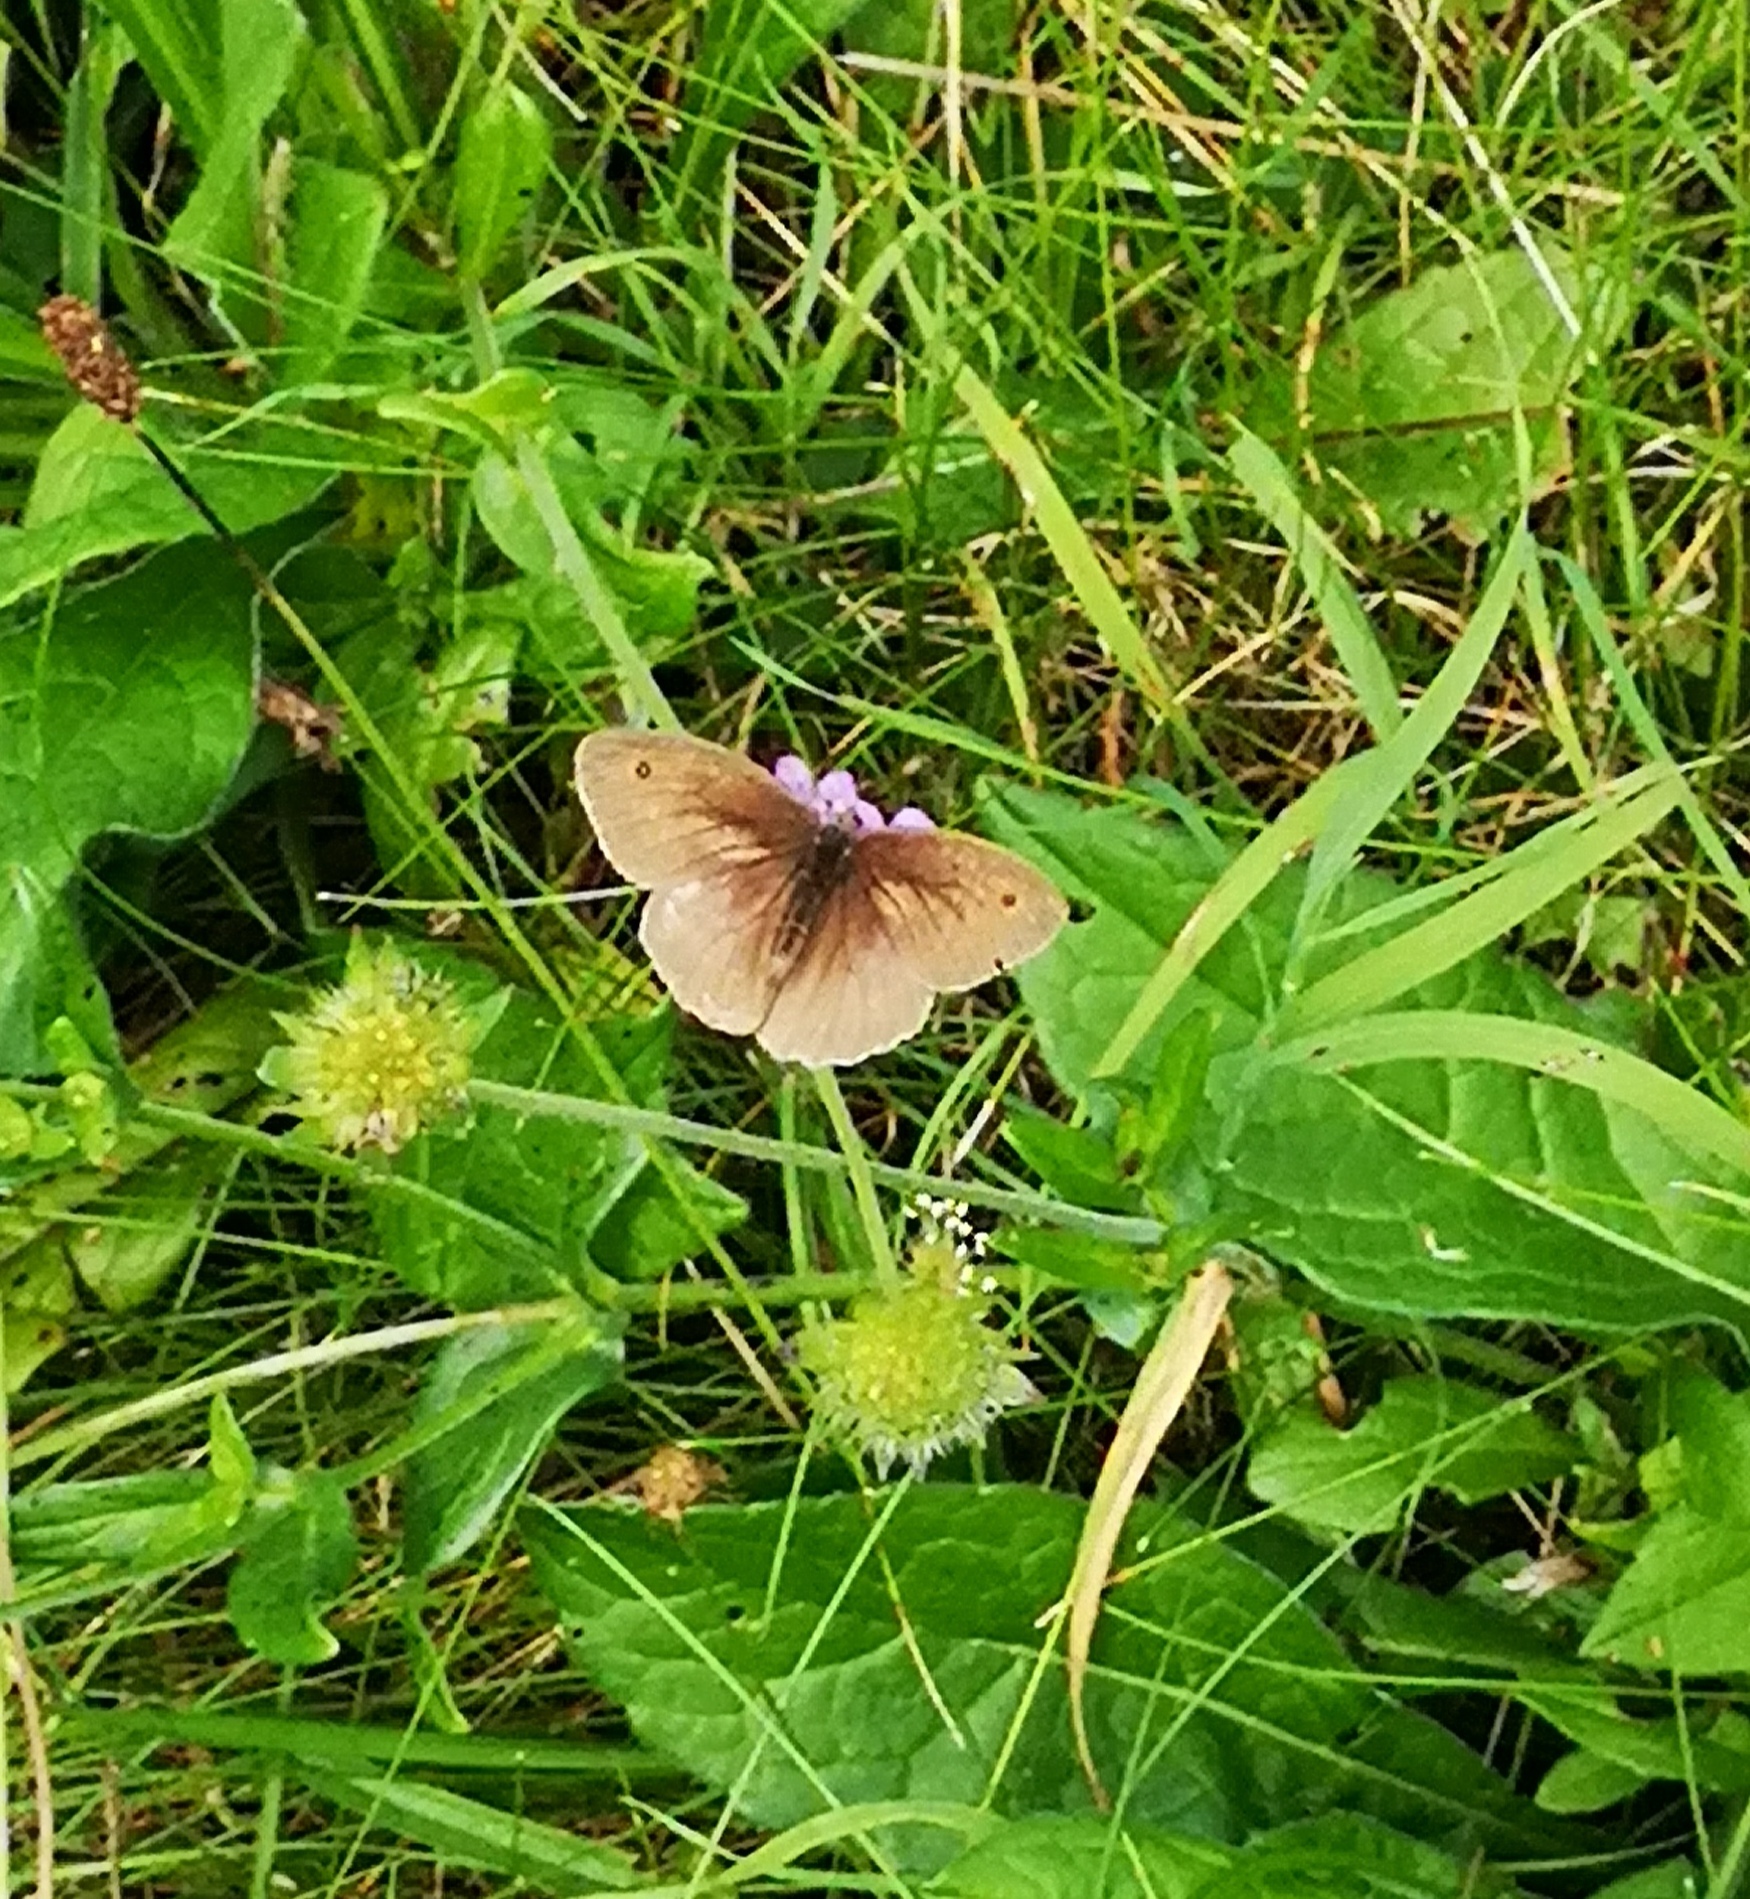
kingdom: Animalia
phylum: Arthropoda
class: Insecta
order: Lepidoptera
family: Nymphalidae
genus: Maniola
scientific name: Maniola jurtina
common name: Meadow brown
